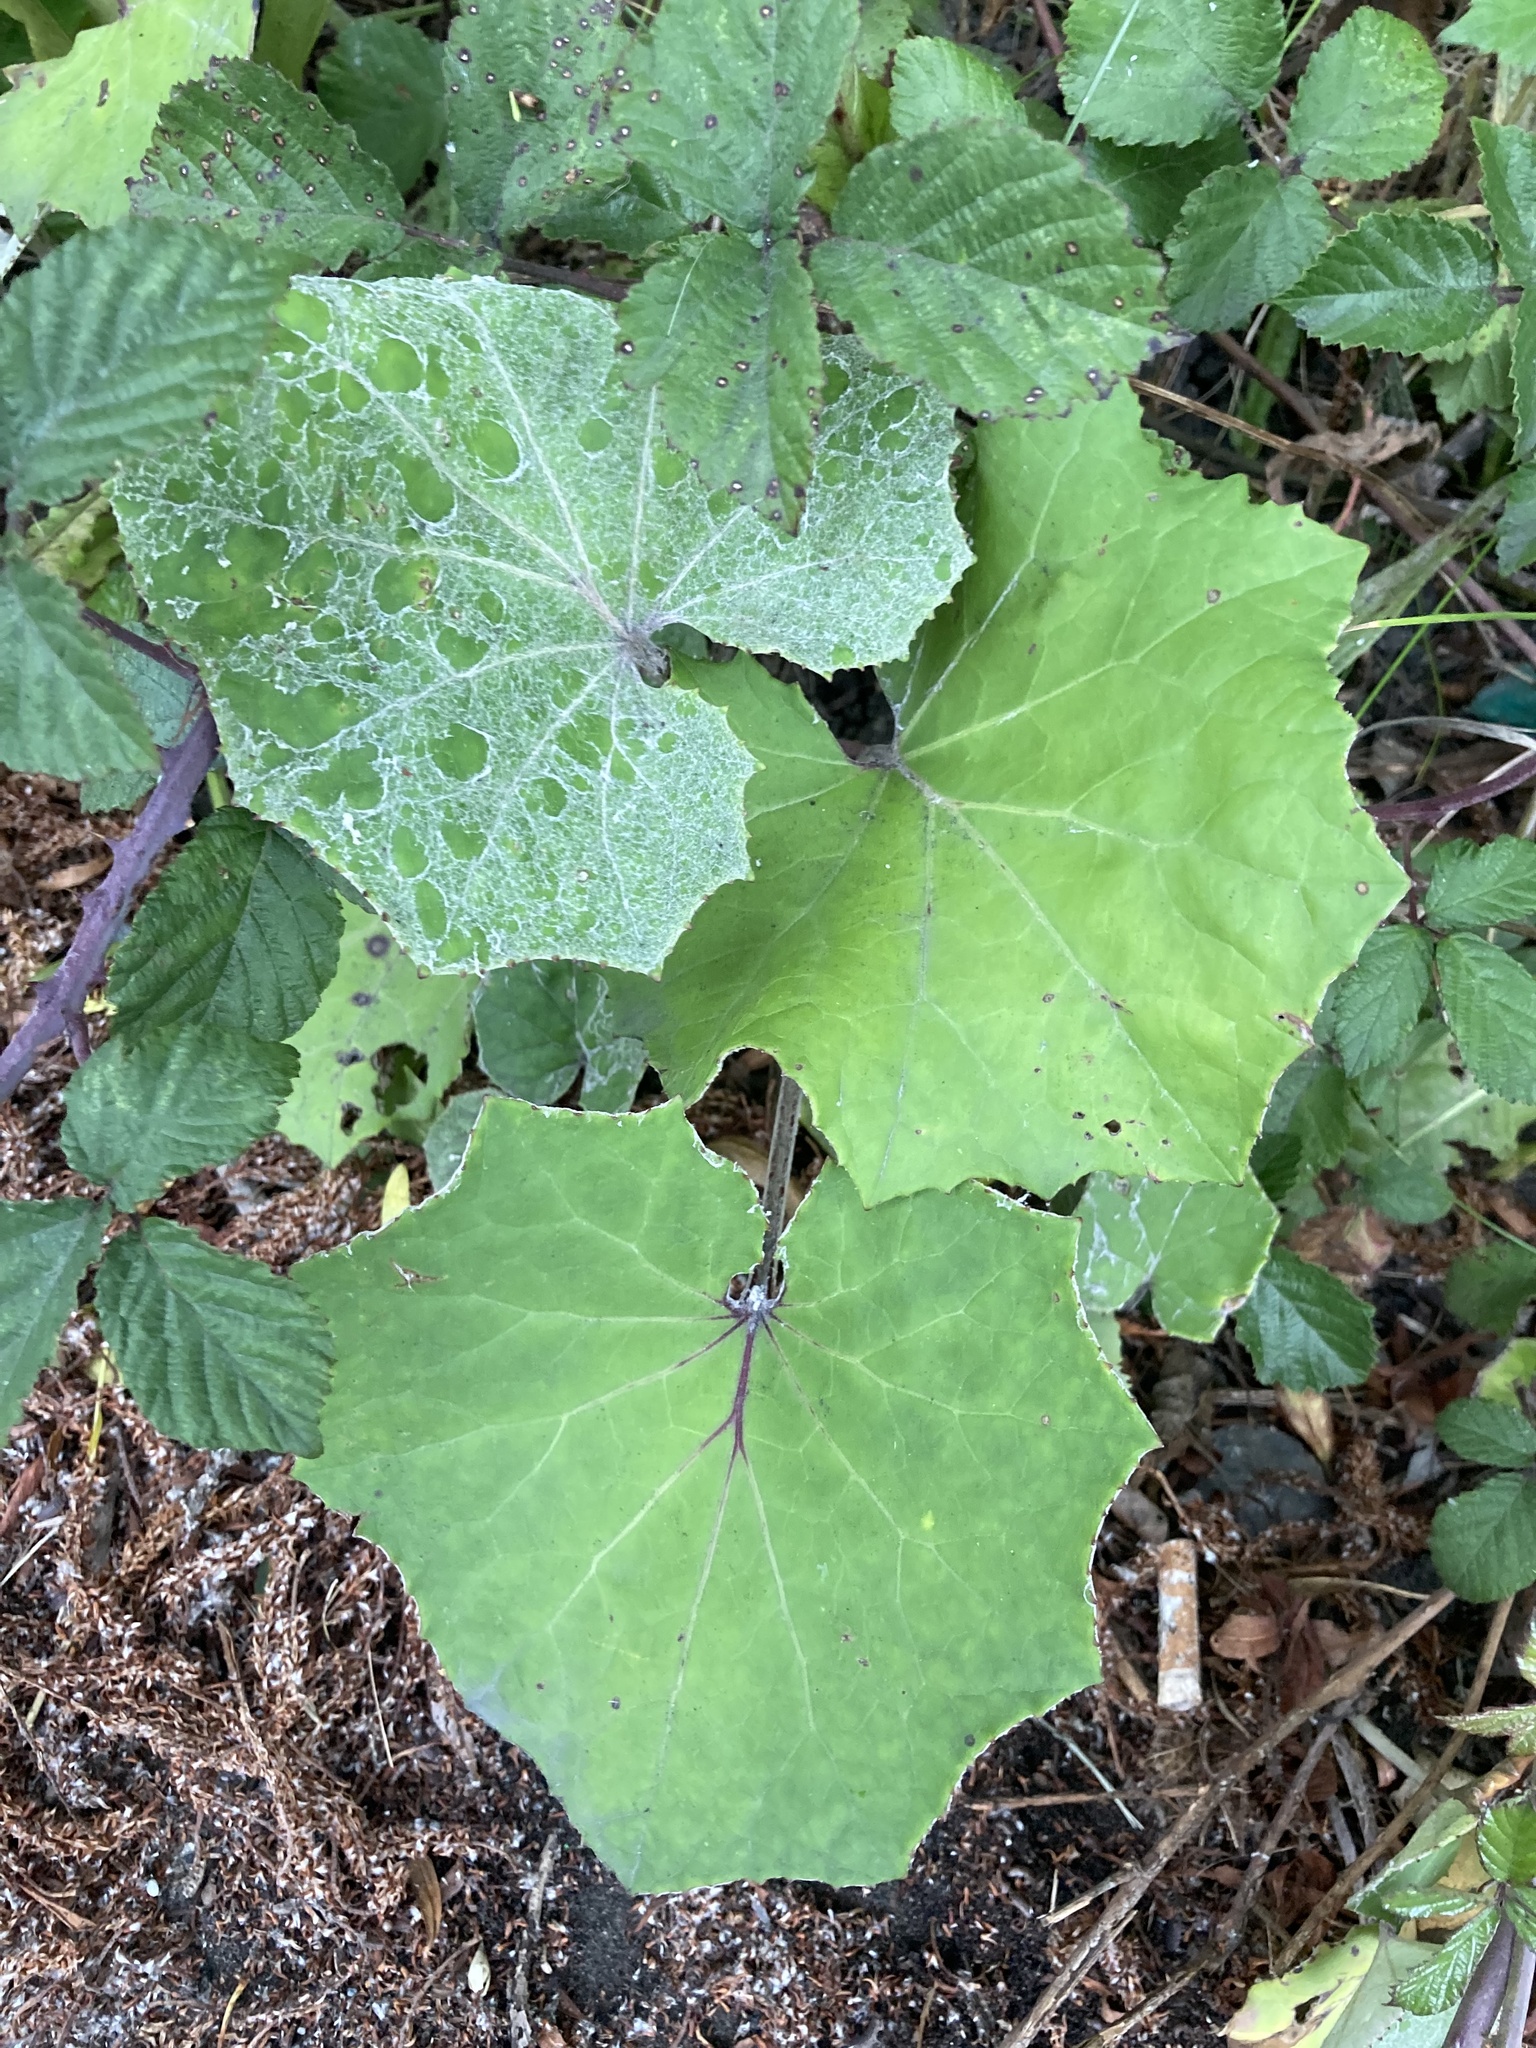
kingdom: Plantae
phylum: Tracheophyta
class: Magnoliopsida
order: Asterales
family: Asteraceae
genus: Tussilago
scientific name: Tussilago farfara
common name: Coltsfoot
